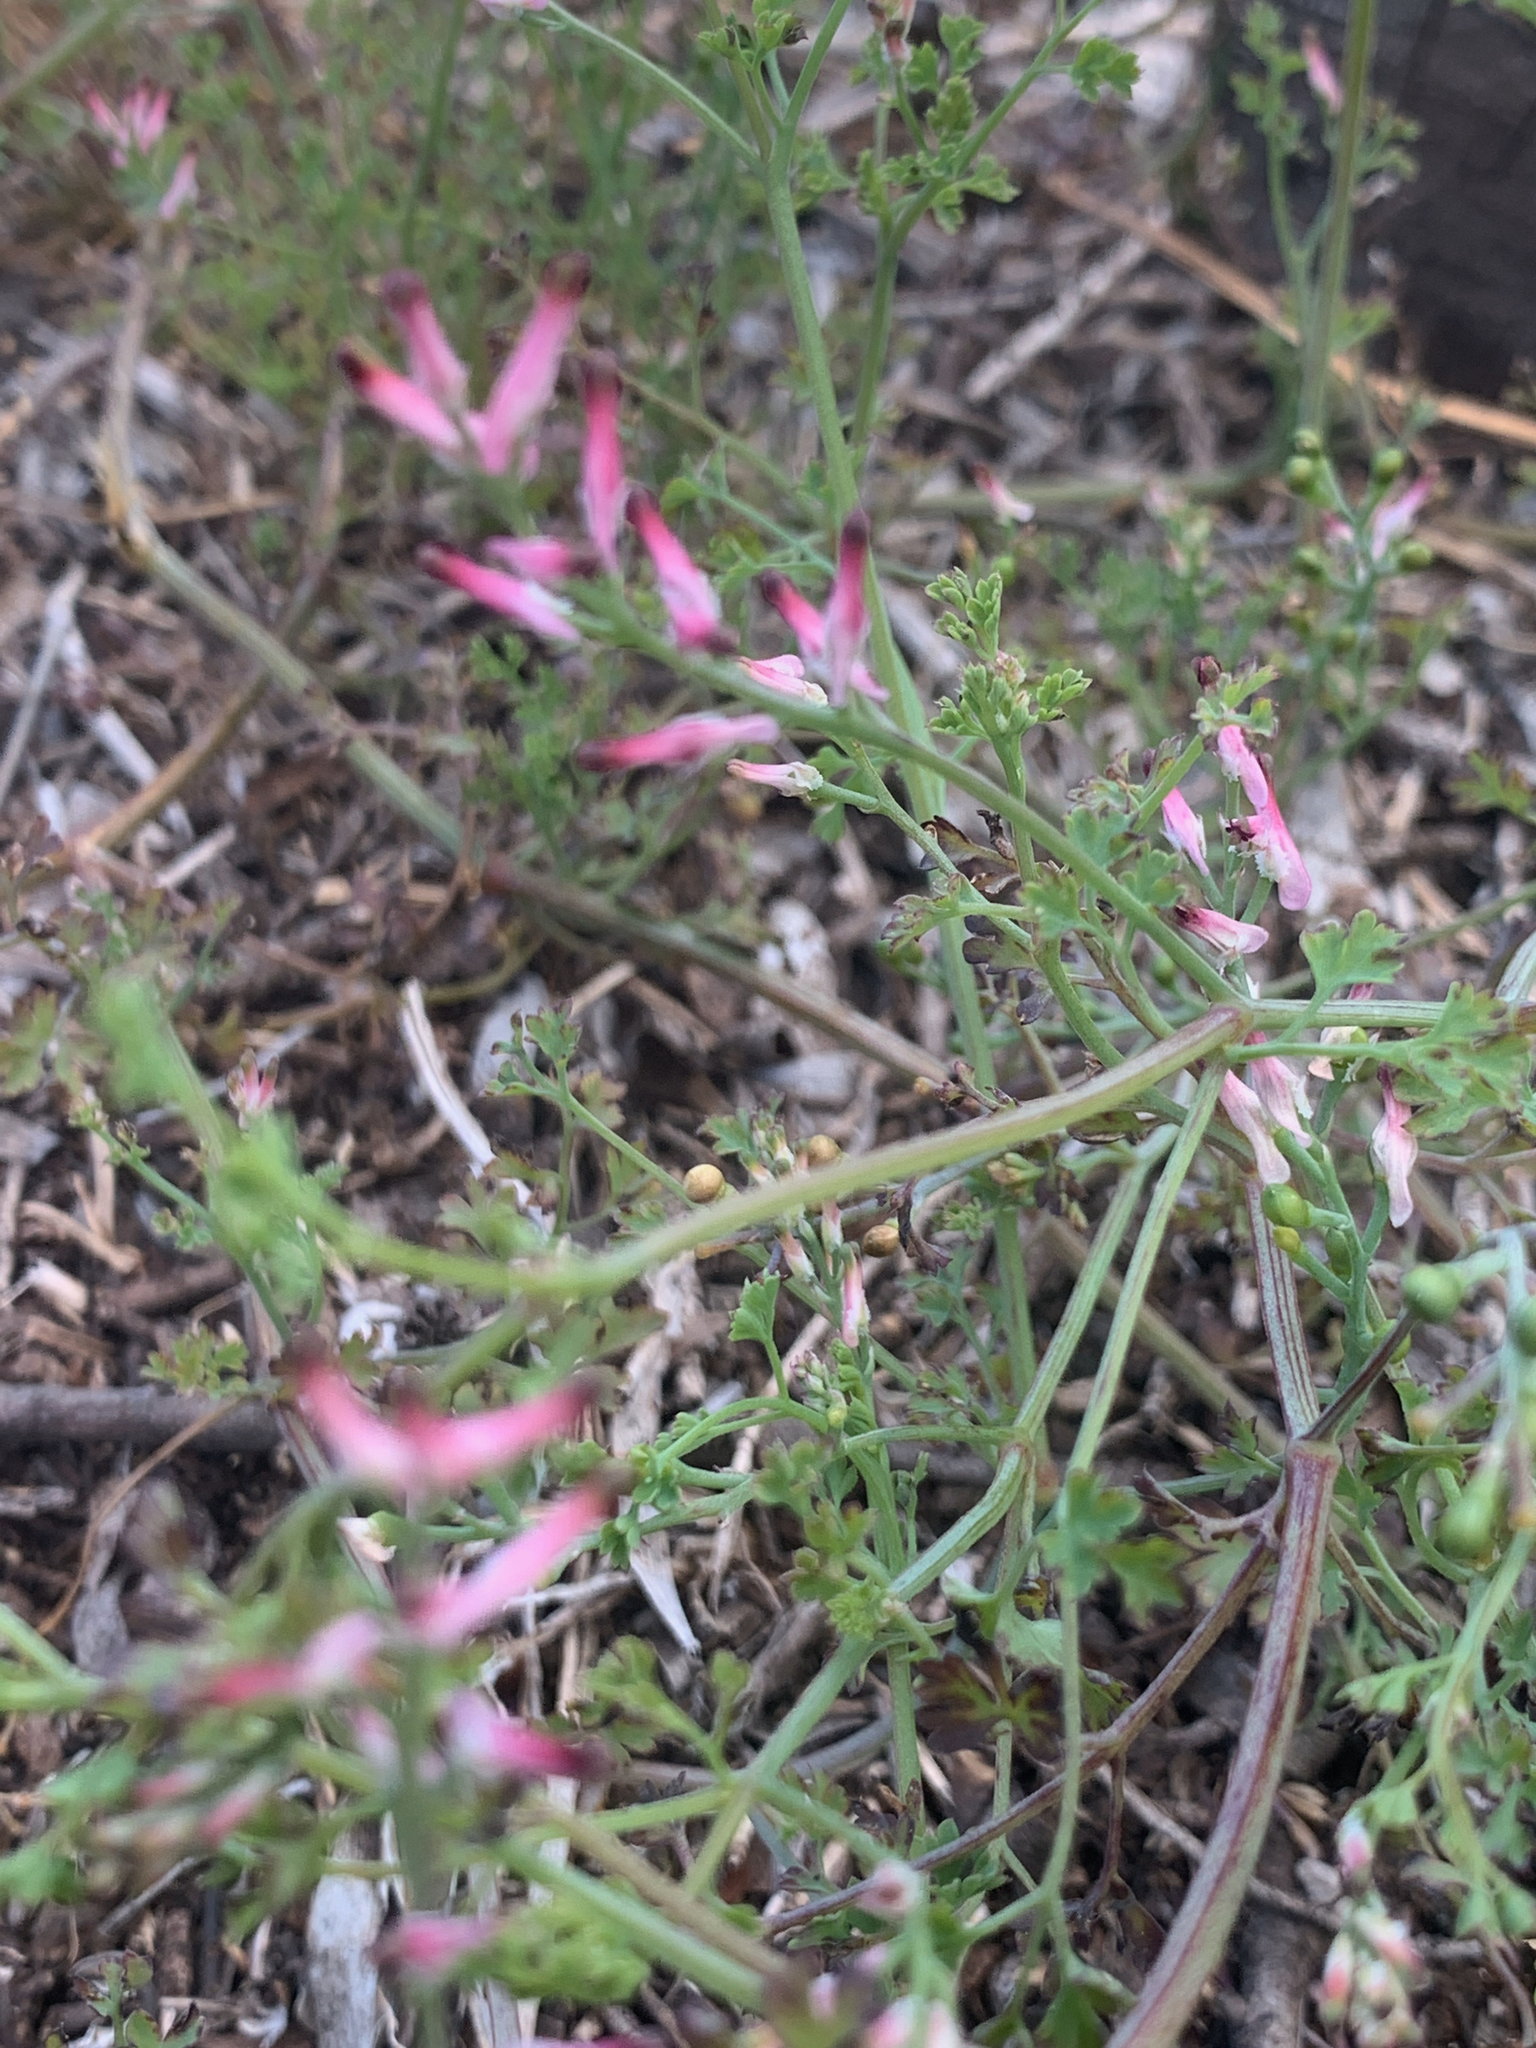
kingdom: Plantae
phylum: Tracheophyta
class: Magnoliopsida
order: Ranunculales
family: Papaveraceae
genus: Fumaria
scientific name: Fumaria muralis
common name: Common ramping-fumitory
